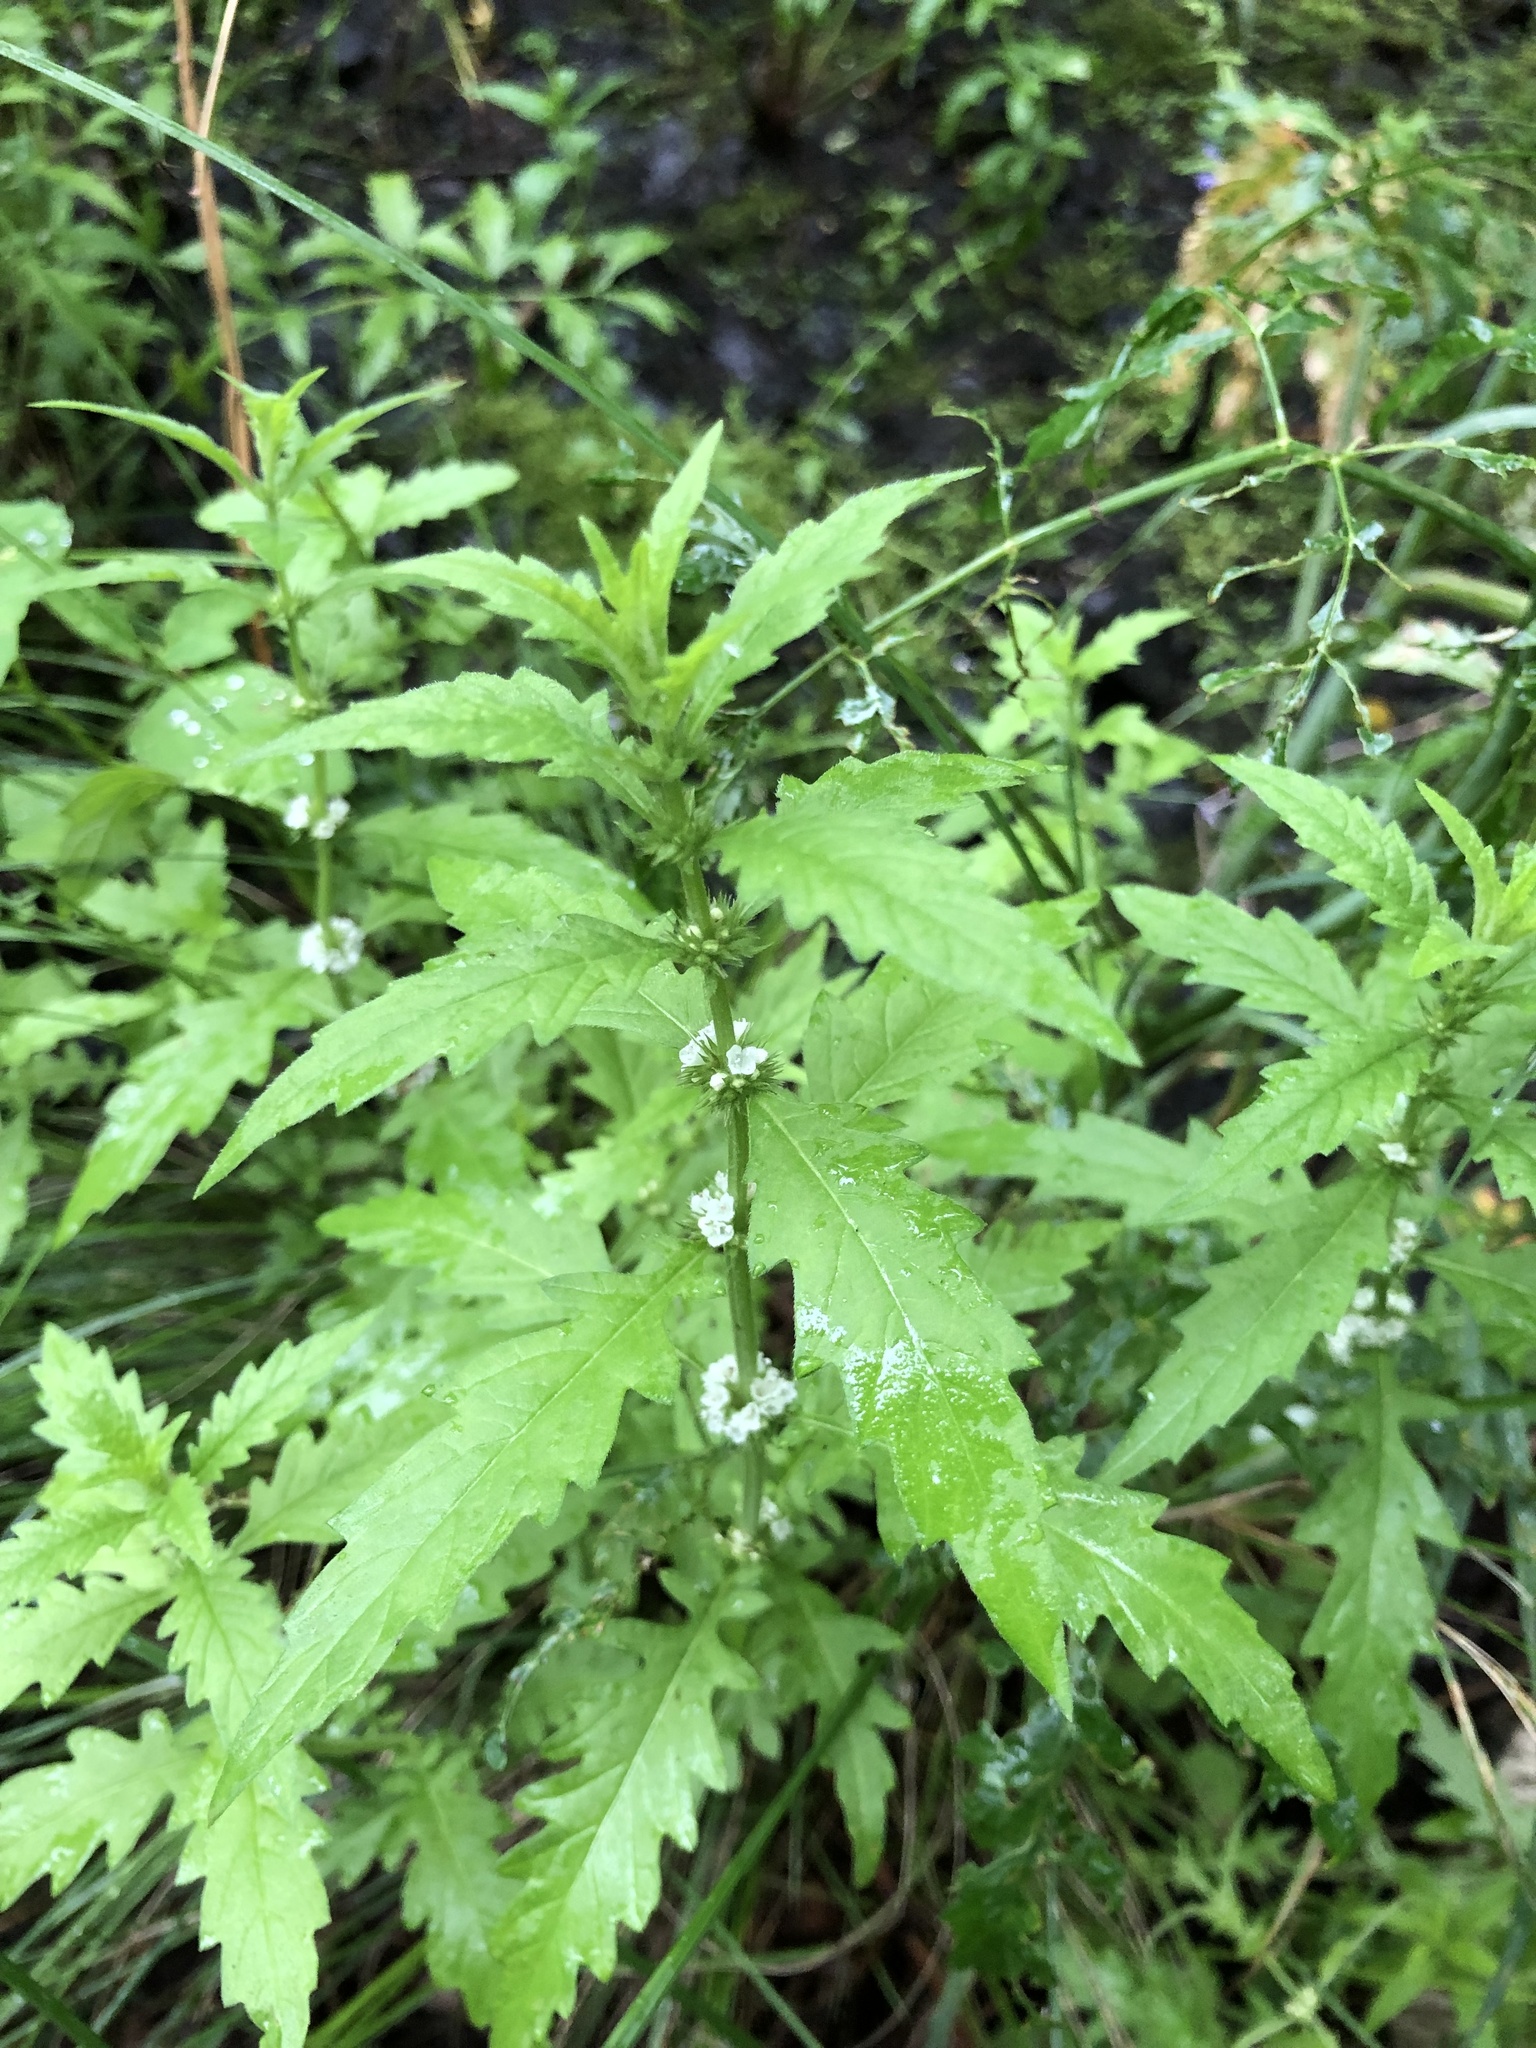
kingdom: Plantae
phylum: Tracheophyta
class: Magnoliopsida
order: Lamiales
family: Lamiaceae
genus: Lycopus
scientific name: Lycopus europaeus
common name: European bugleweed
